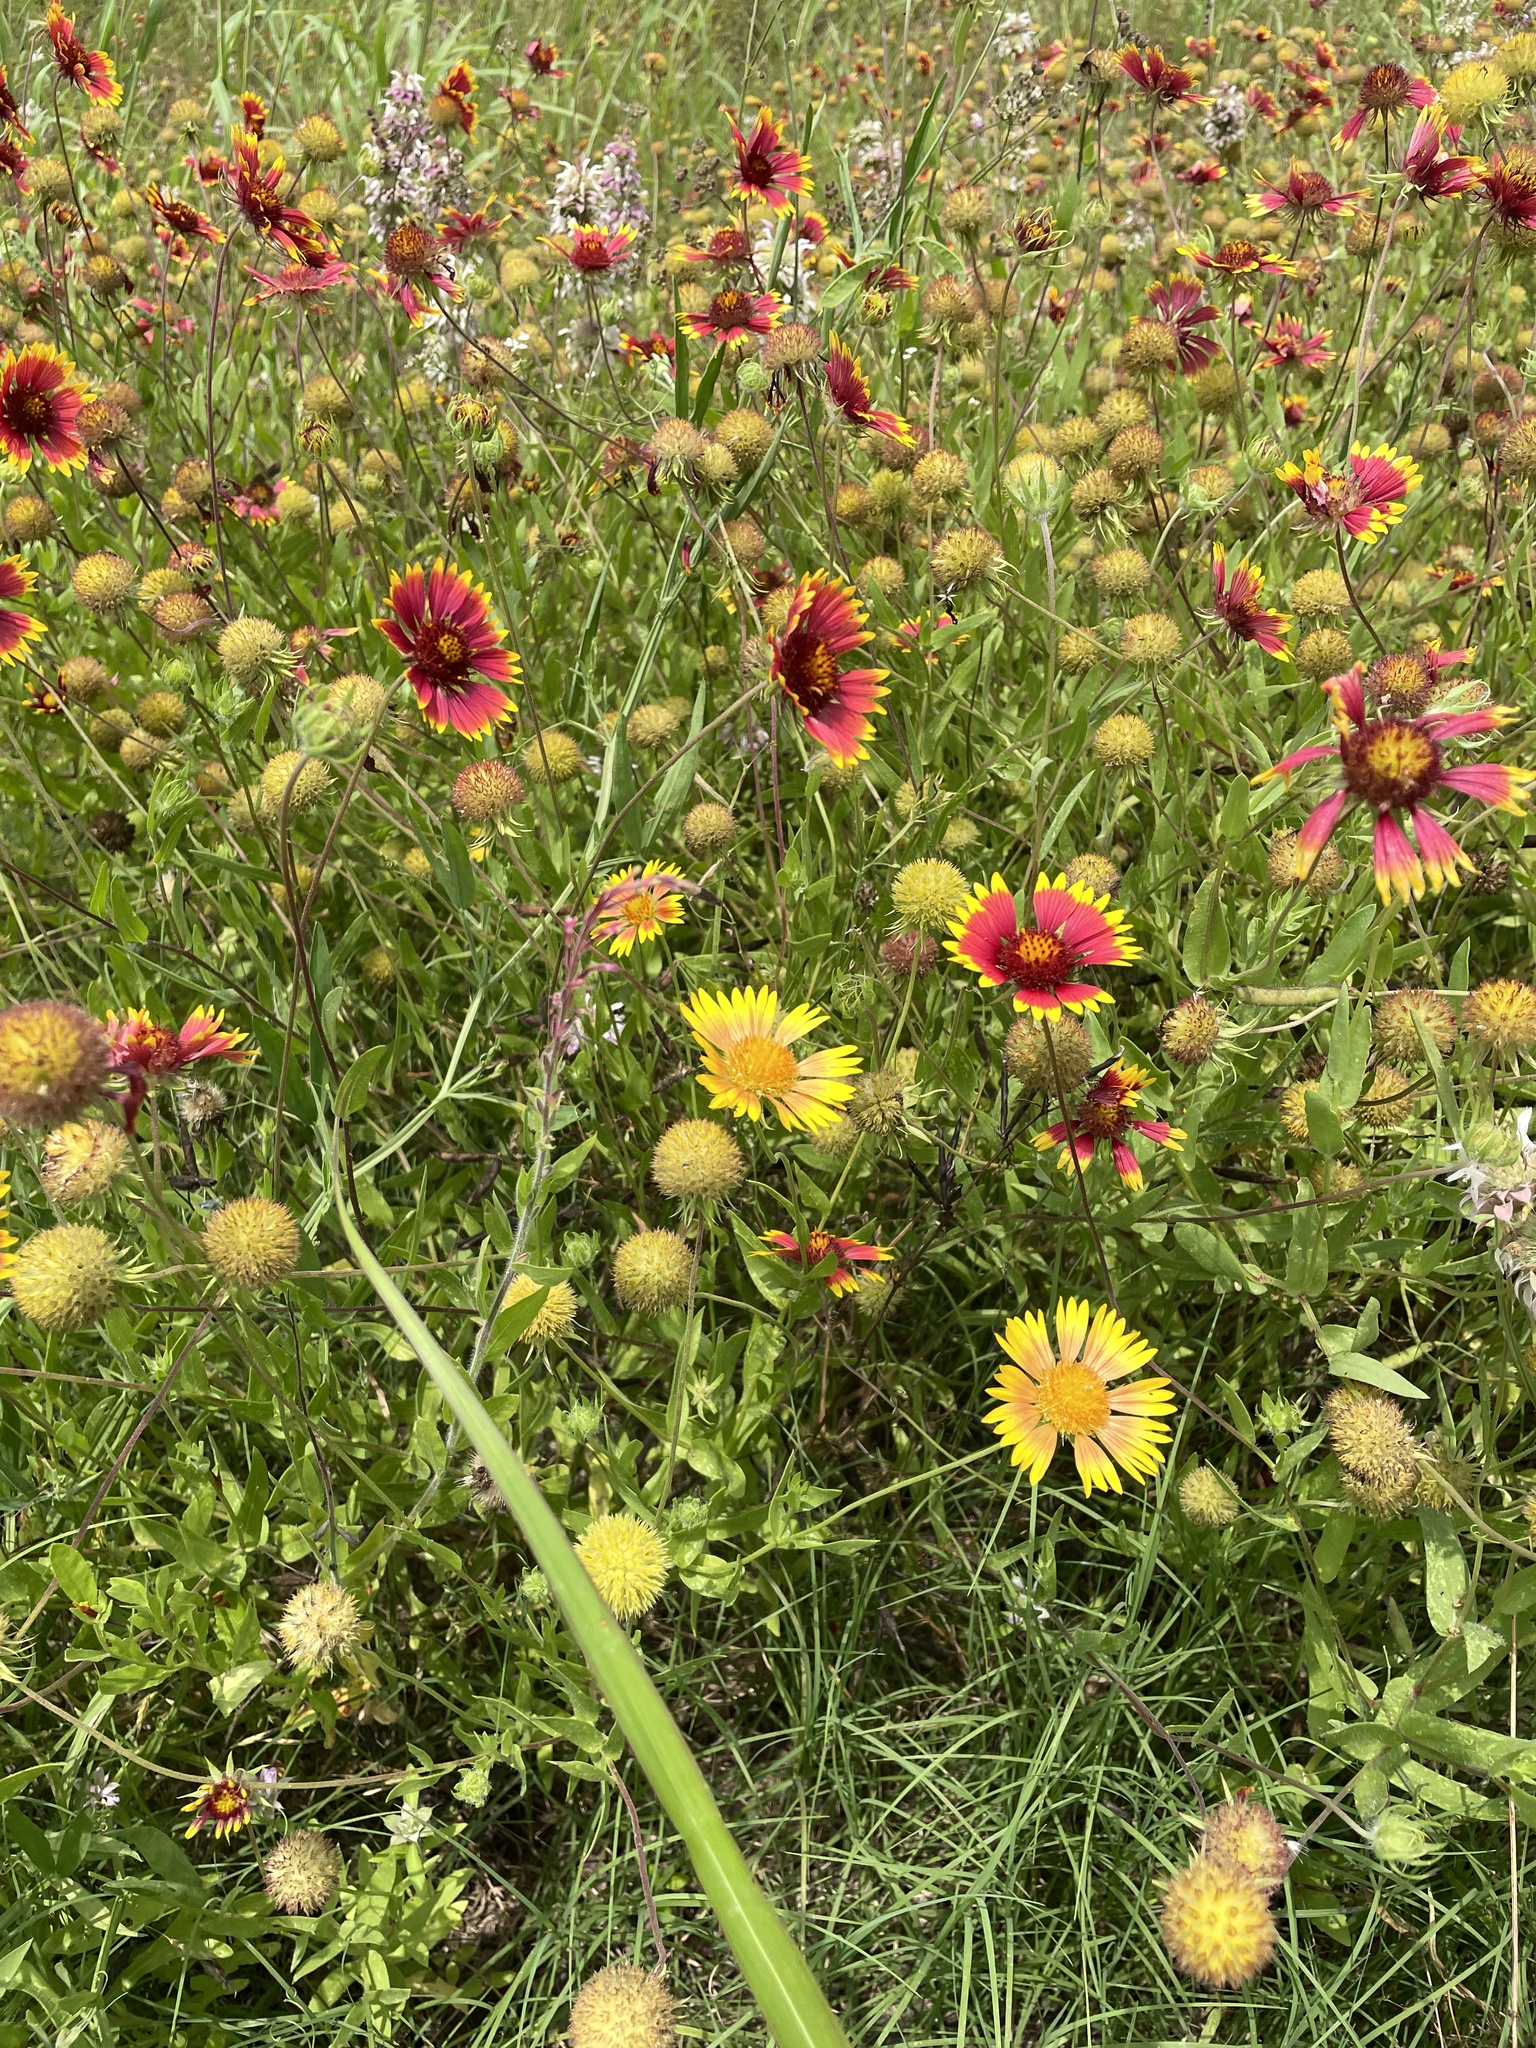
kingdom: Plantae
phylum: Tracheophyta
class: Magnoliopsida
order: Asterales
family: Asteraceae
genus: Gaillardia
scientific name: Gaillardia pulchella
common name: Firewheel
